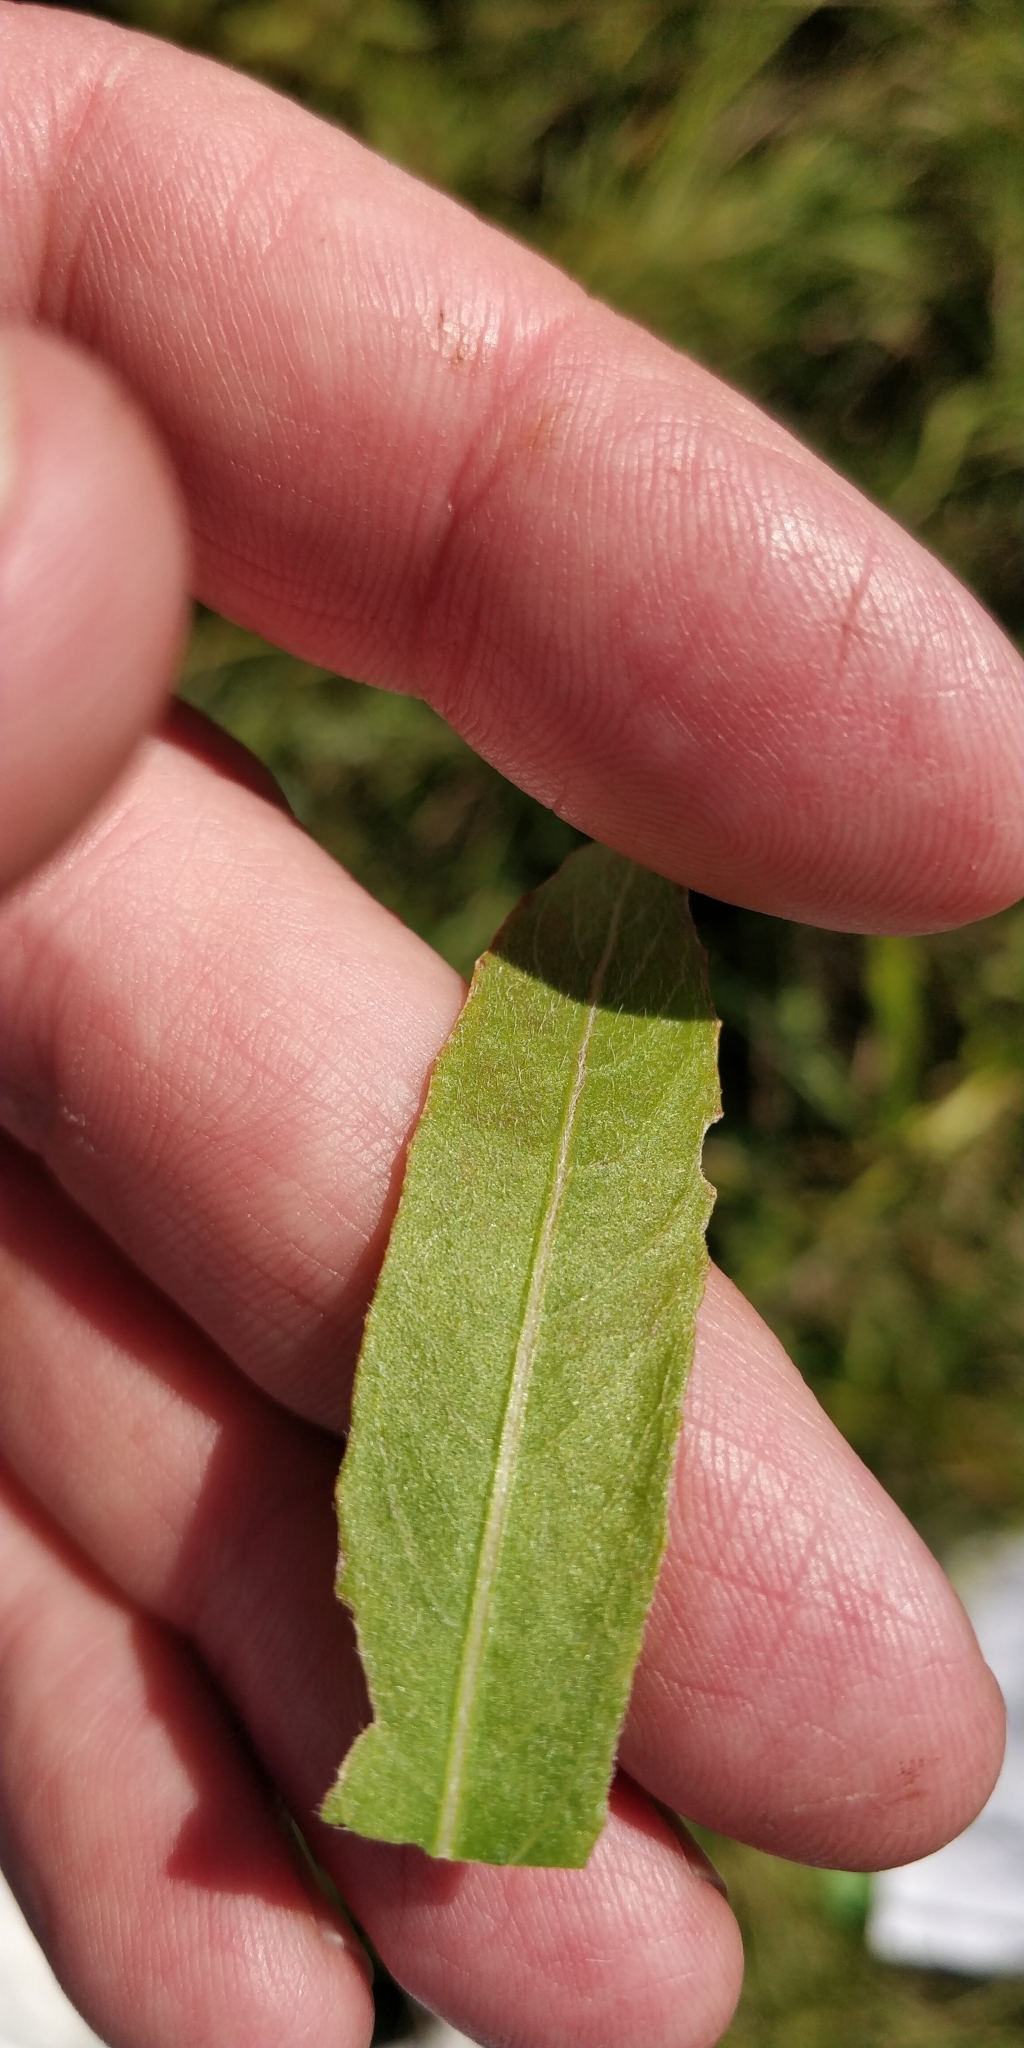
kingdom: Plantae
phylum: Tracheophyta
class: Magnoliopsida
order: Myrtales
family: Onagraceae
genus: Oenothera
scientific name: Oenothera biennis
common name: Common evening-primrose
